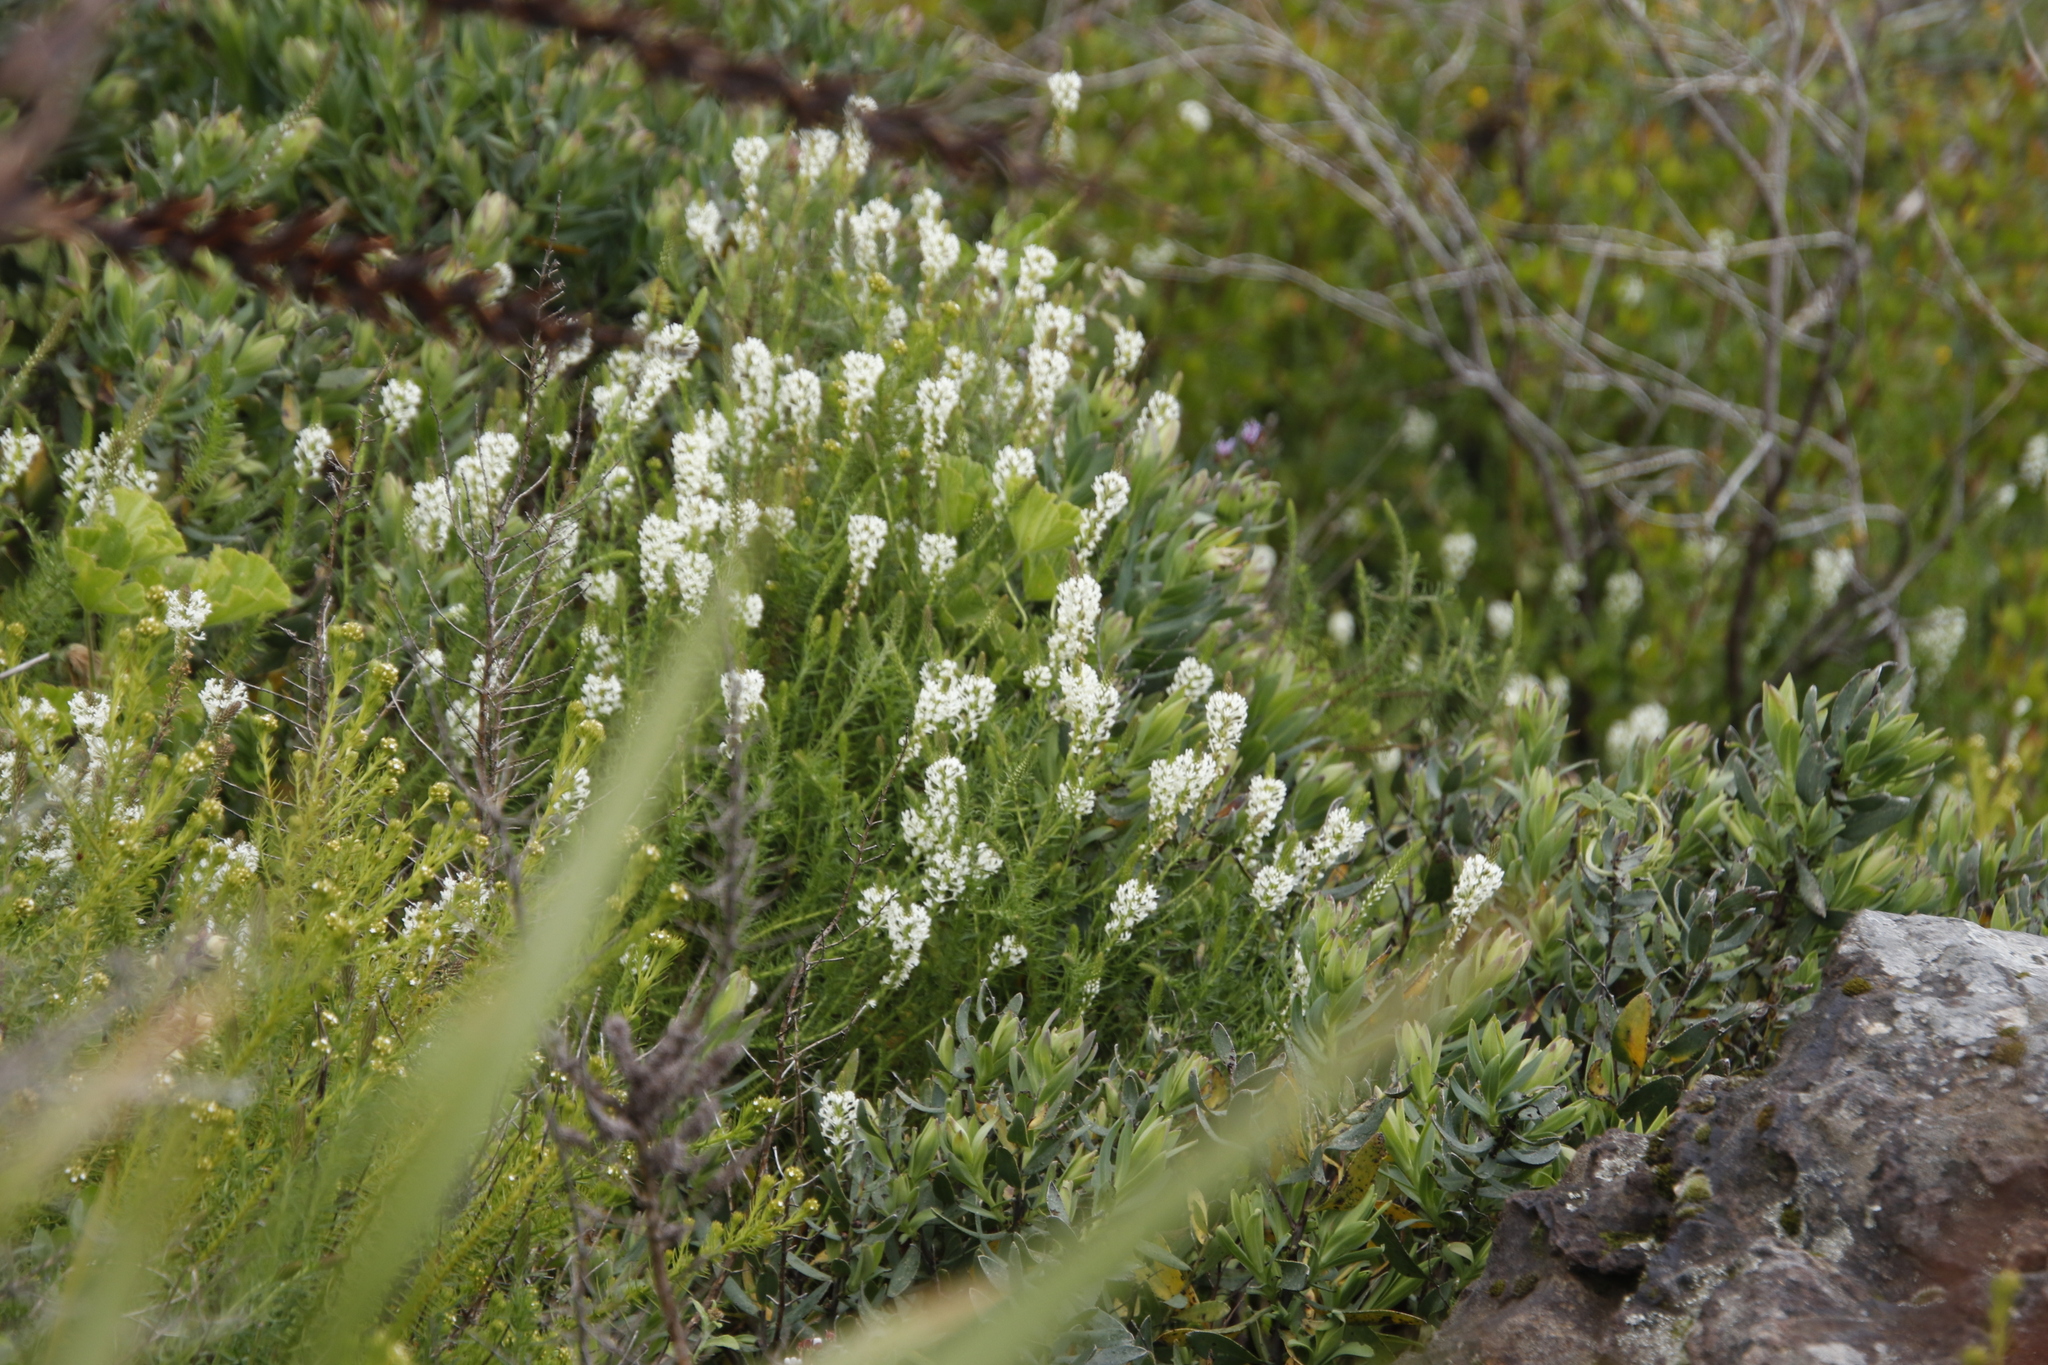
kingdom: Plantae
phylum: Tracheophyta
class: Magnoliopsida
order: Lamiales
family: Scrophulariaceae
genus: Dischisma
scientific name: Dischisma ciliatum
